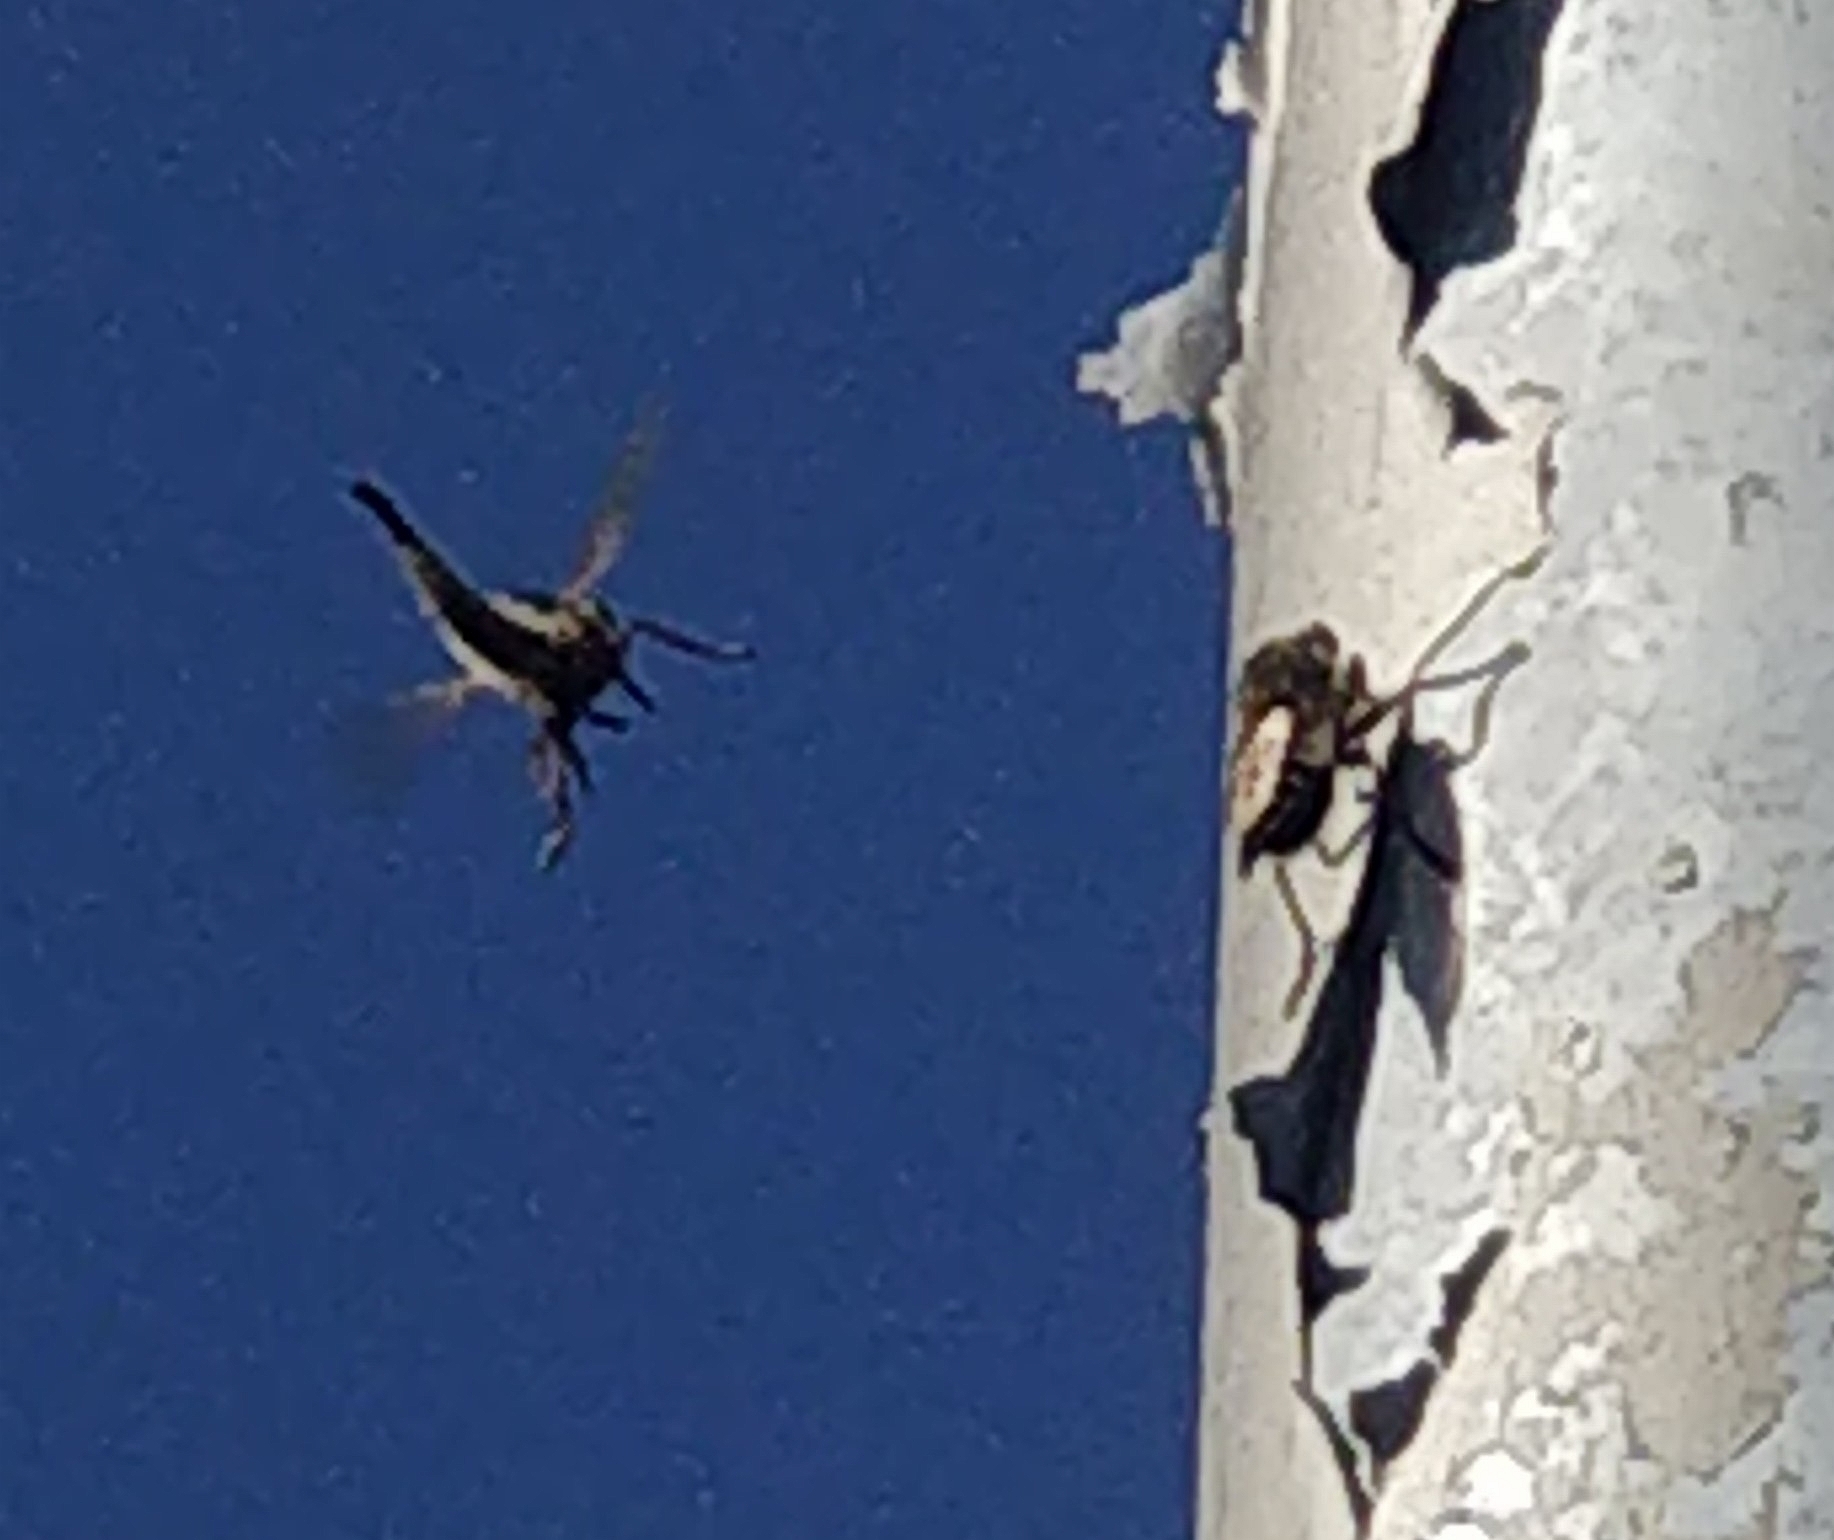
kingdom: Animalia
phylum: Arthropoda
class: Insecta
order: Diptera
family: Asilidae
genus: Promachus
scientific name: Promachus gomerae
